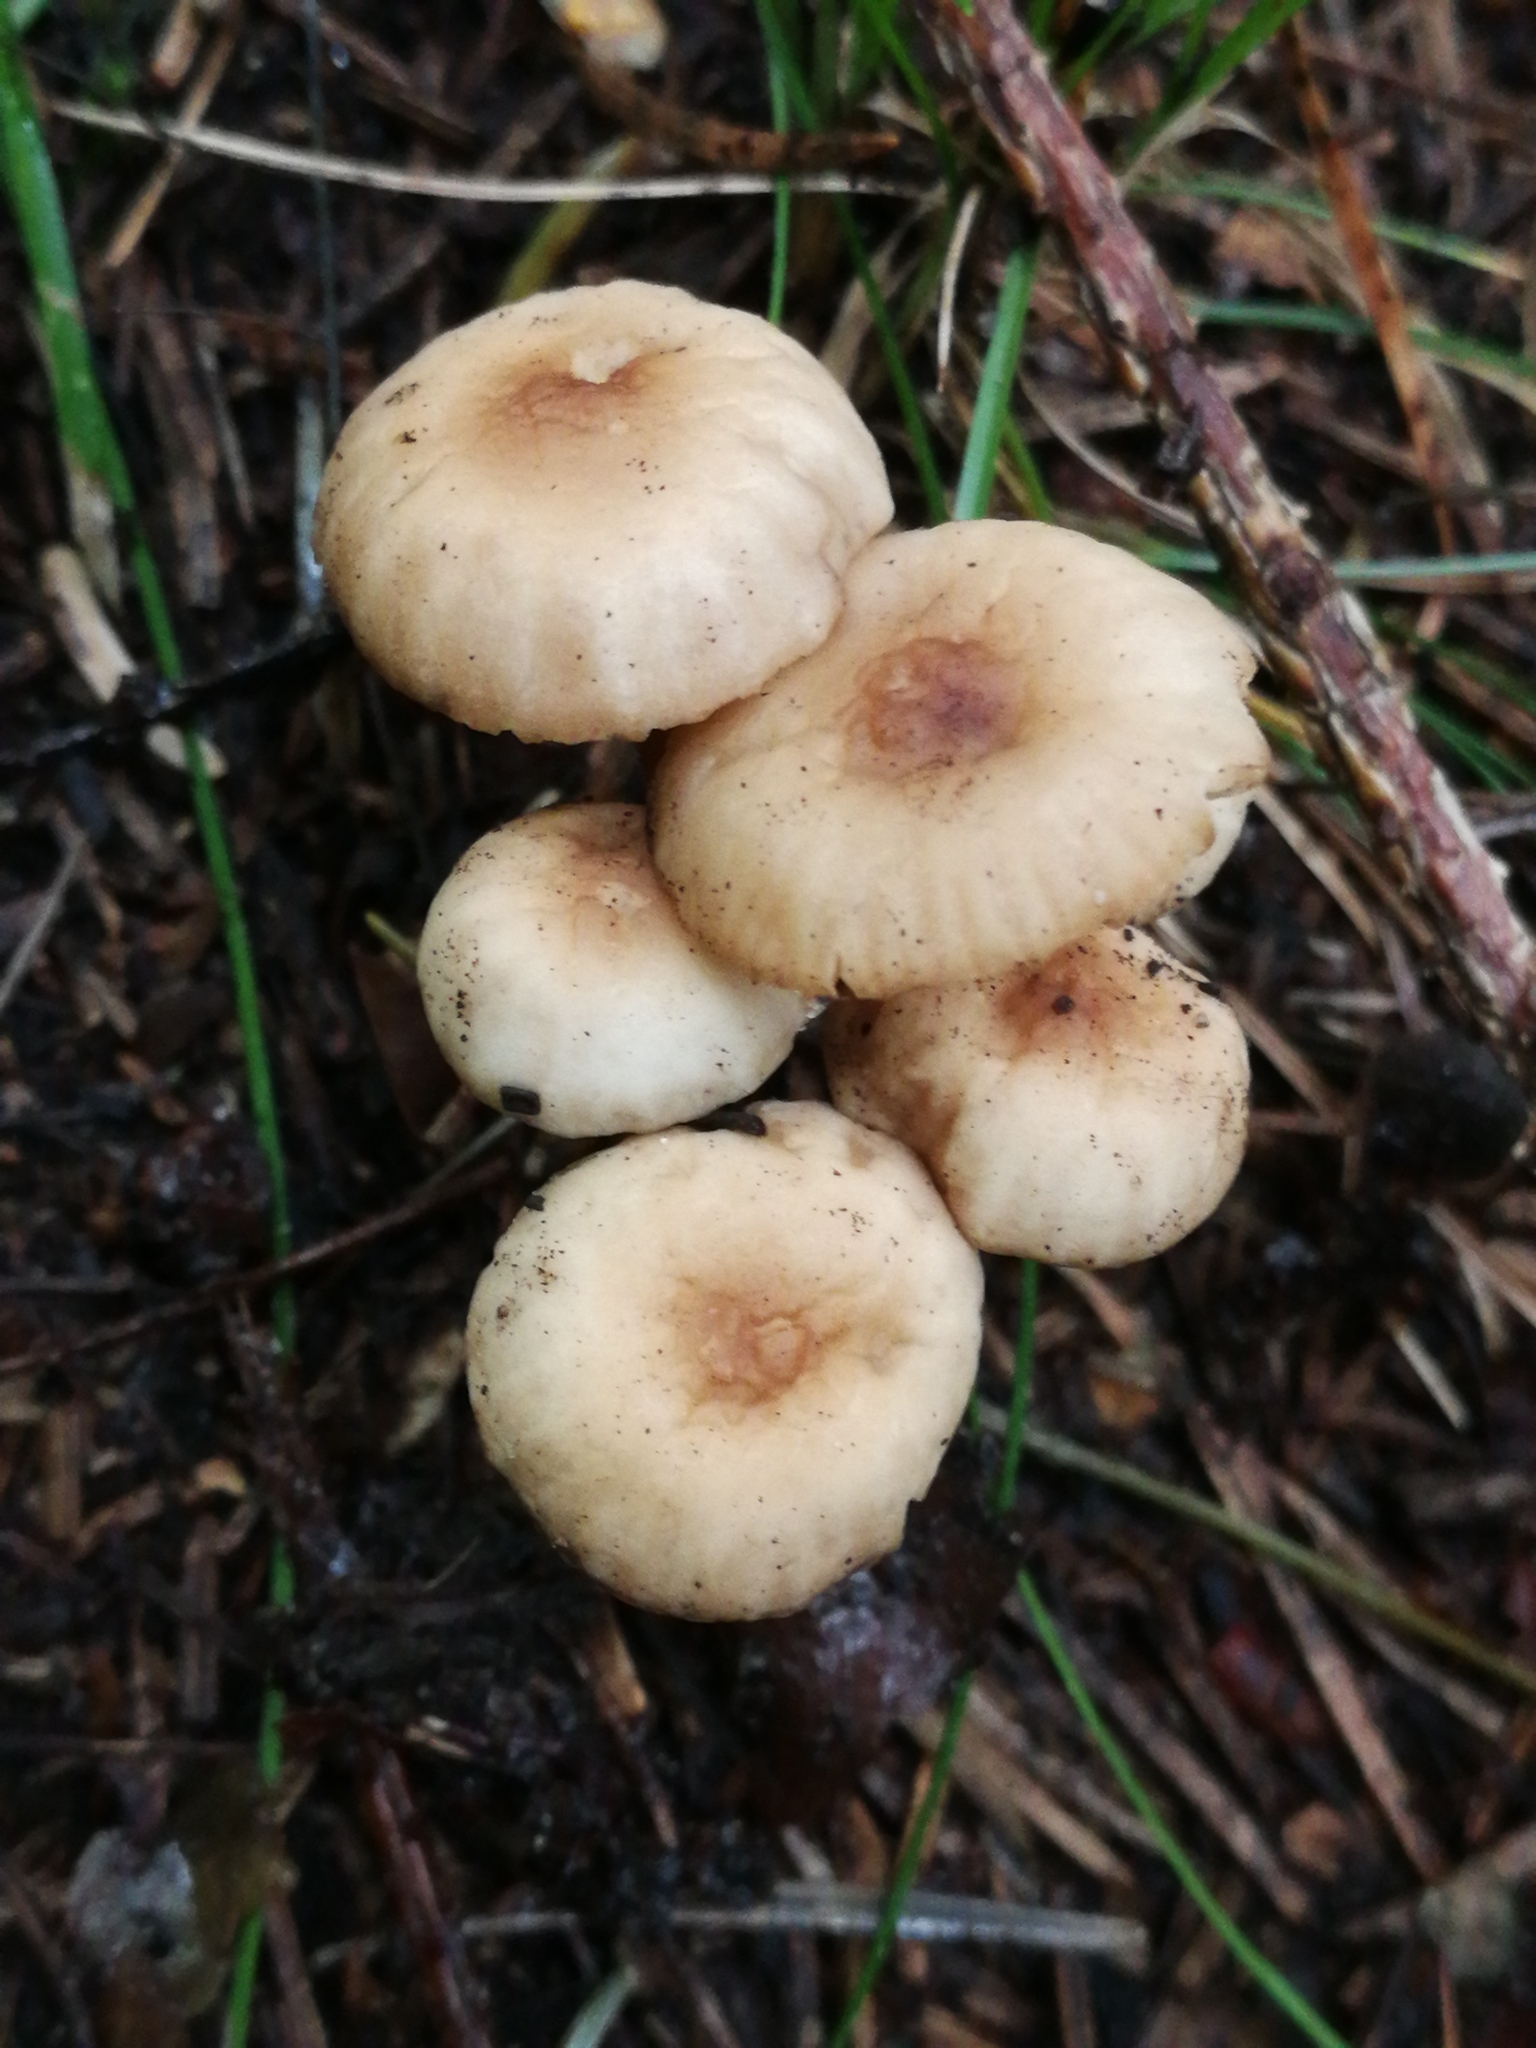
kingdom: Fungi
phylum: Basidiomycota
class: Agaricomycetes
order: Agaricales
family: Marasmiaceae
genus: Marasmius
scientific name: Marasmius torquescens
